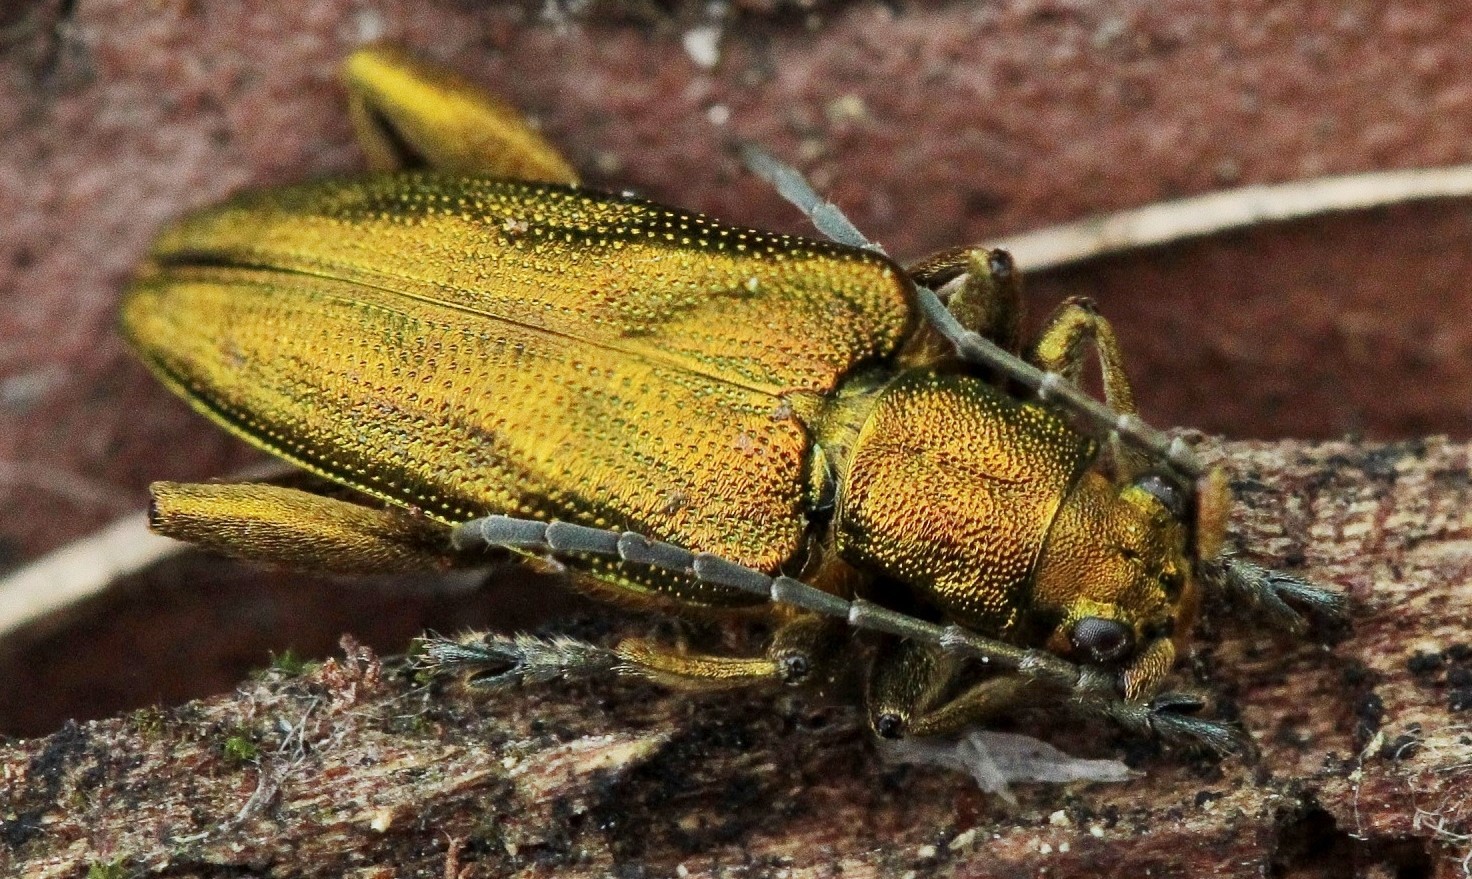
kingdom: Animalia
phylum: Arthropoda
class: Insecta
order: Coleoptera
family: Chrysomelidae
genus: Donacia
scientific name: Donacia bicolora
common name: Reed beetle
